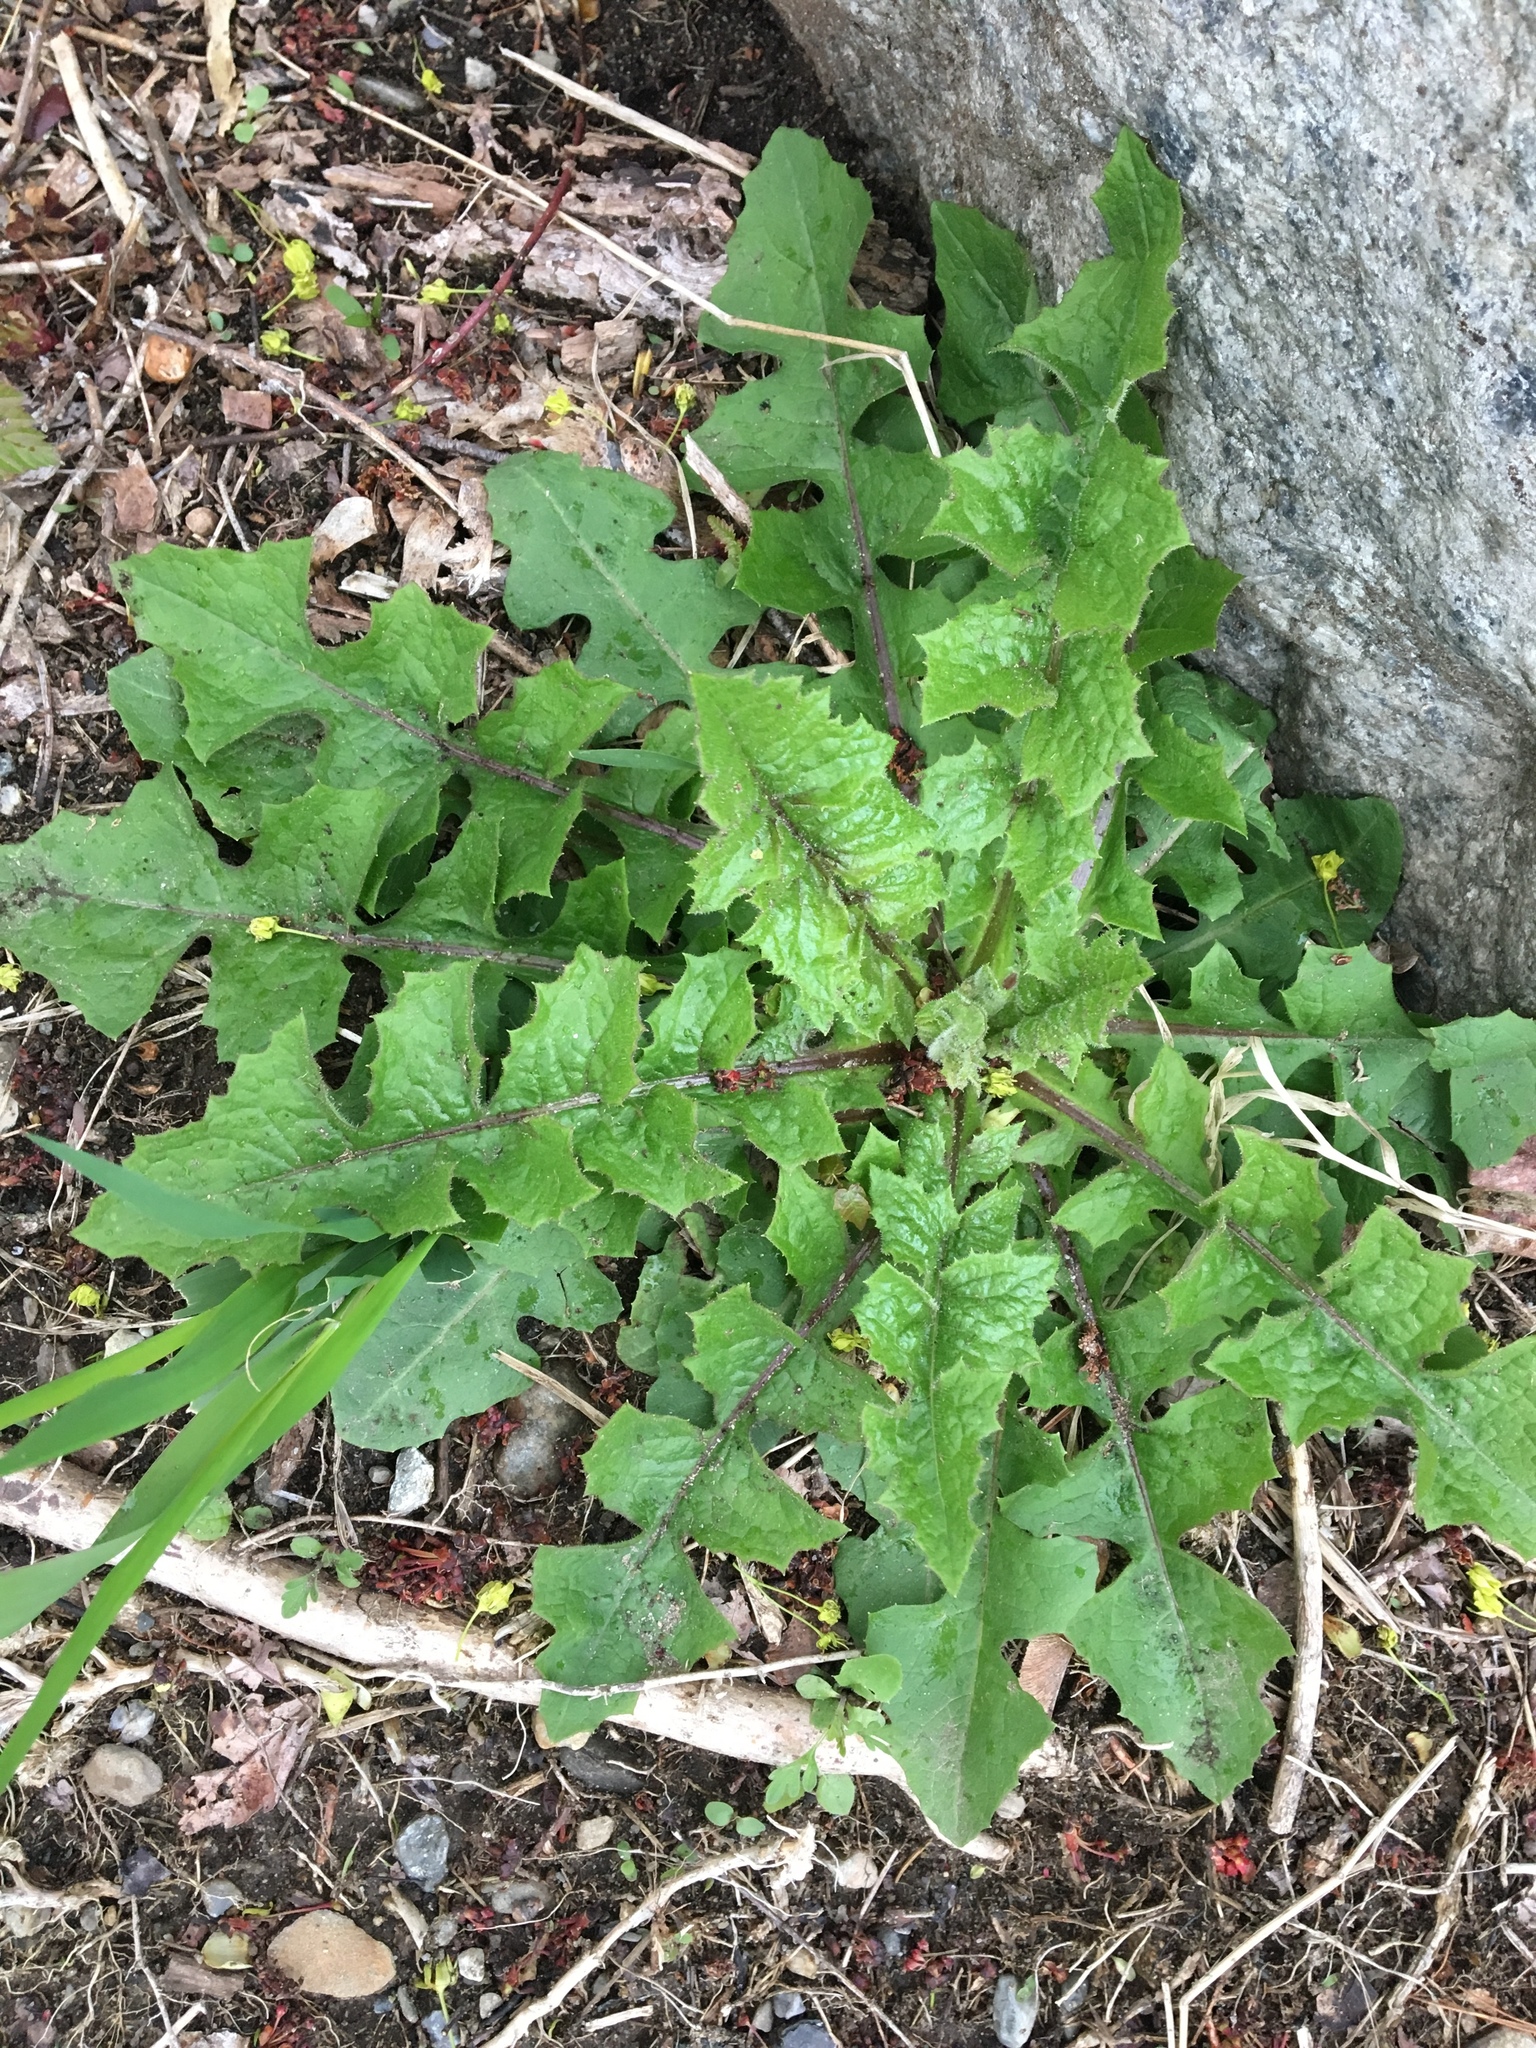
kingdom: Plantae
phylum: Tracheophyta
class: Magnoliopsida
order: Asterales
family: Asteraceae
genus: Taraxacum
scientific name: Taraxacum officinale
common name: Common dandelion
